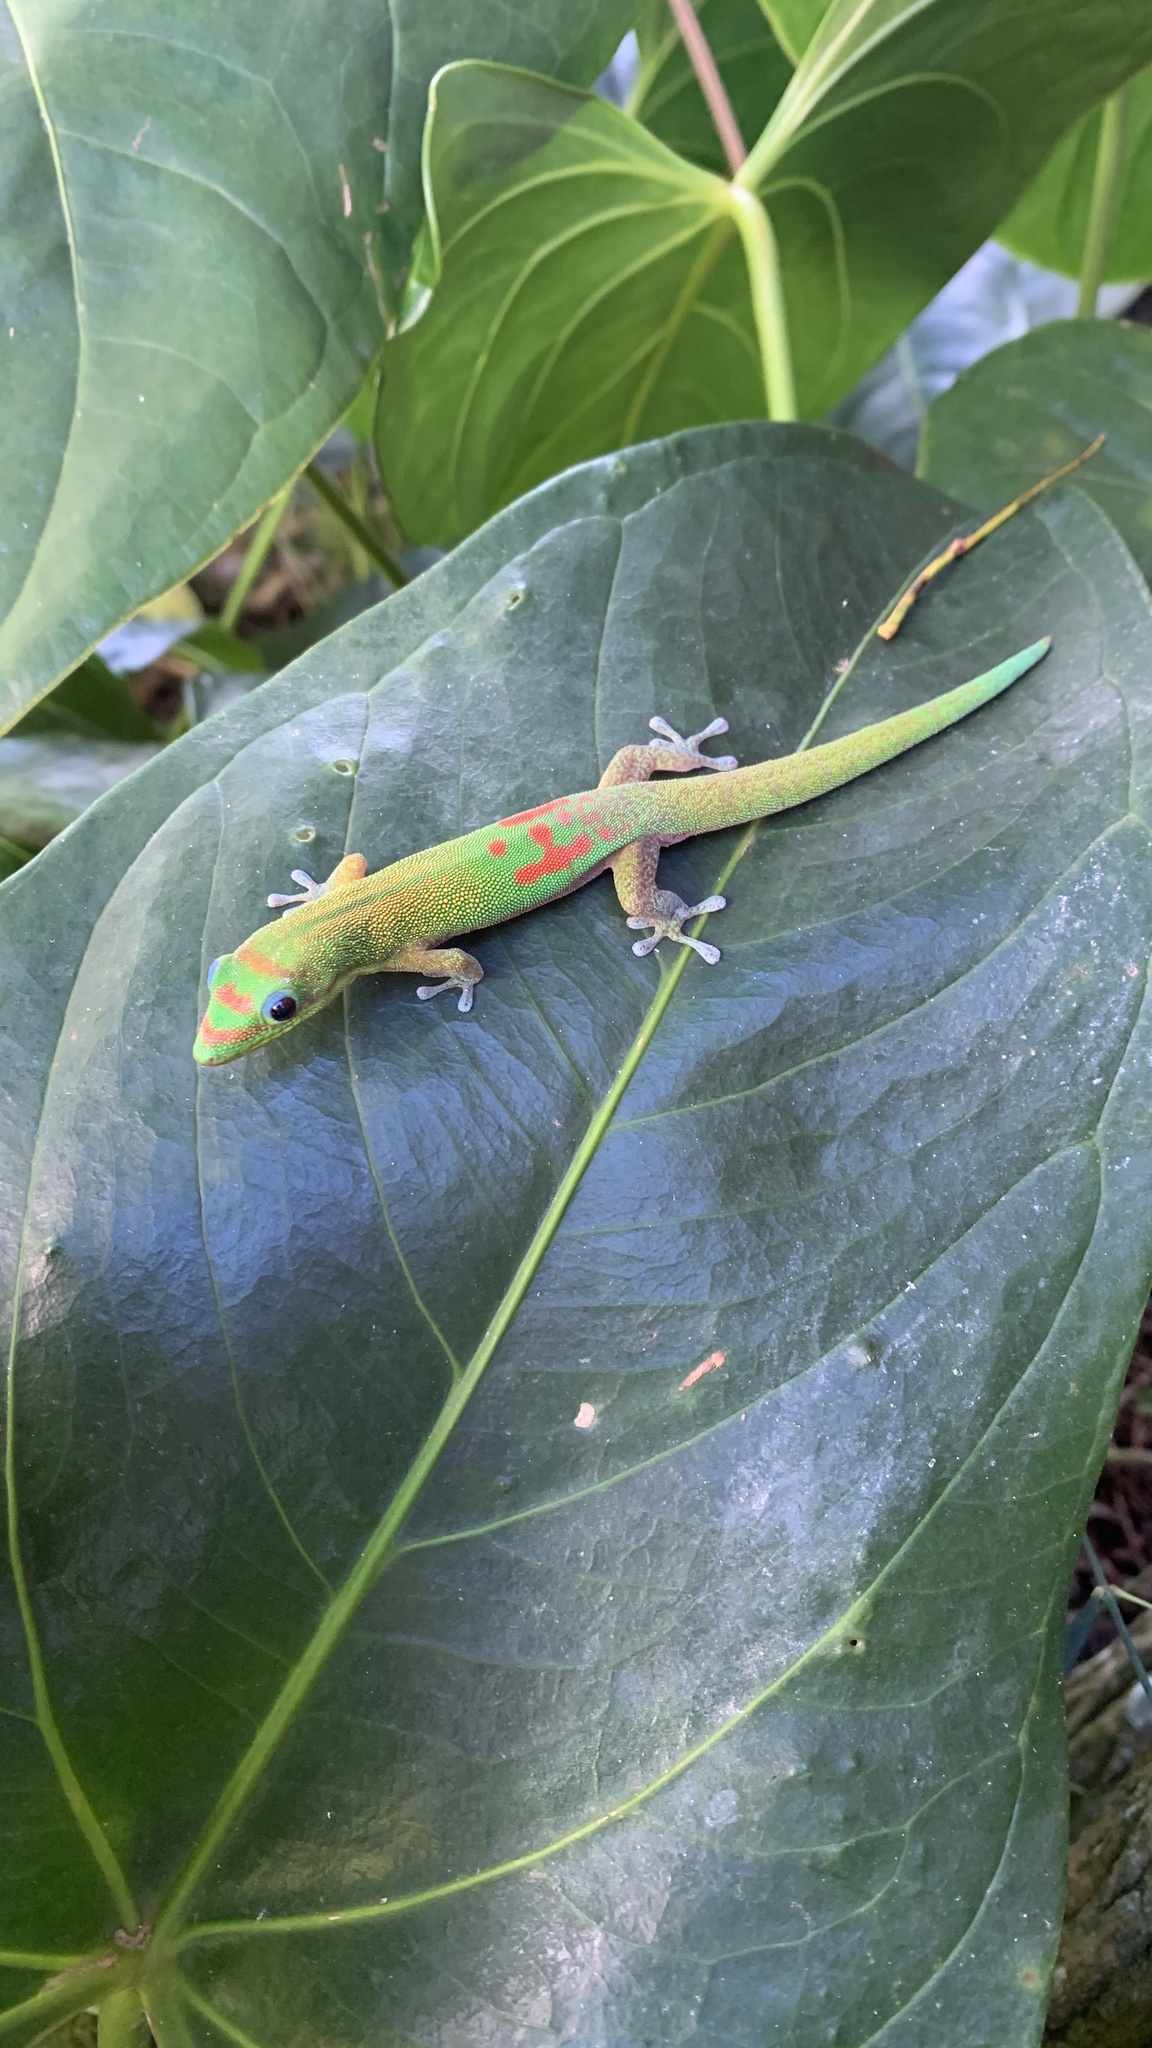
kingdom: Animalia
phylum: Chordata
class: Squamata
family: Gekkonidae
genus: Phelsuma
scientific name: Phelsuma laticauda
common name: Gold dust day gecko
